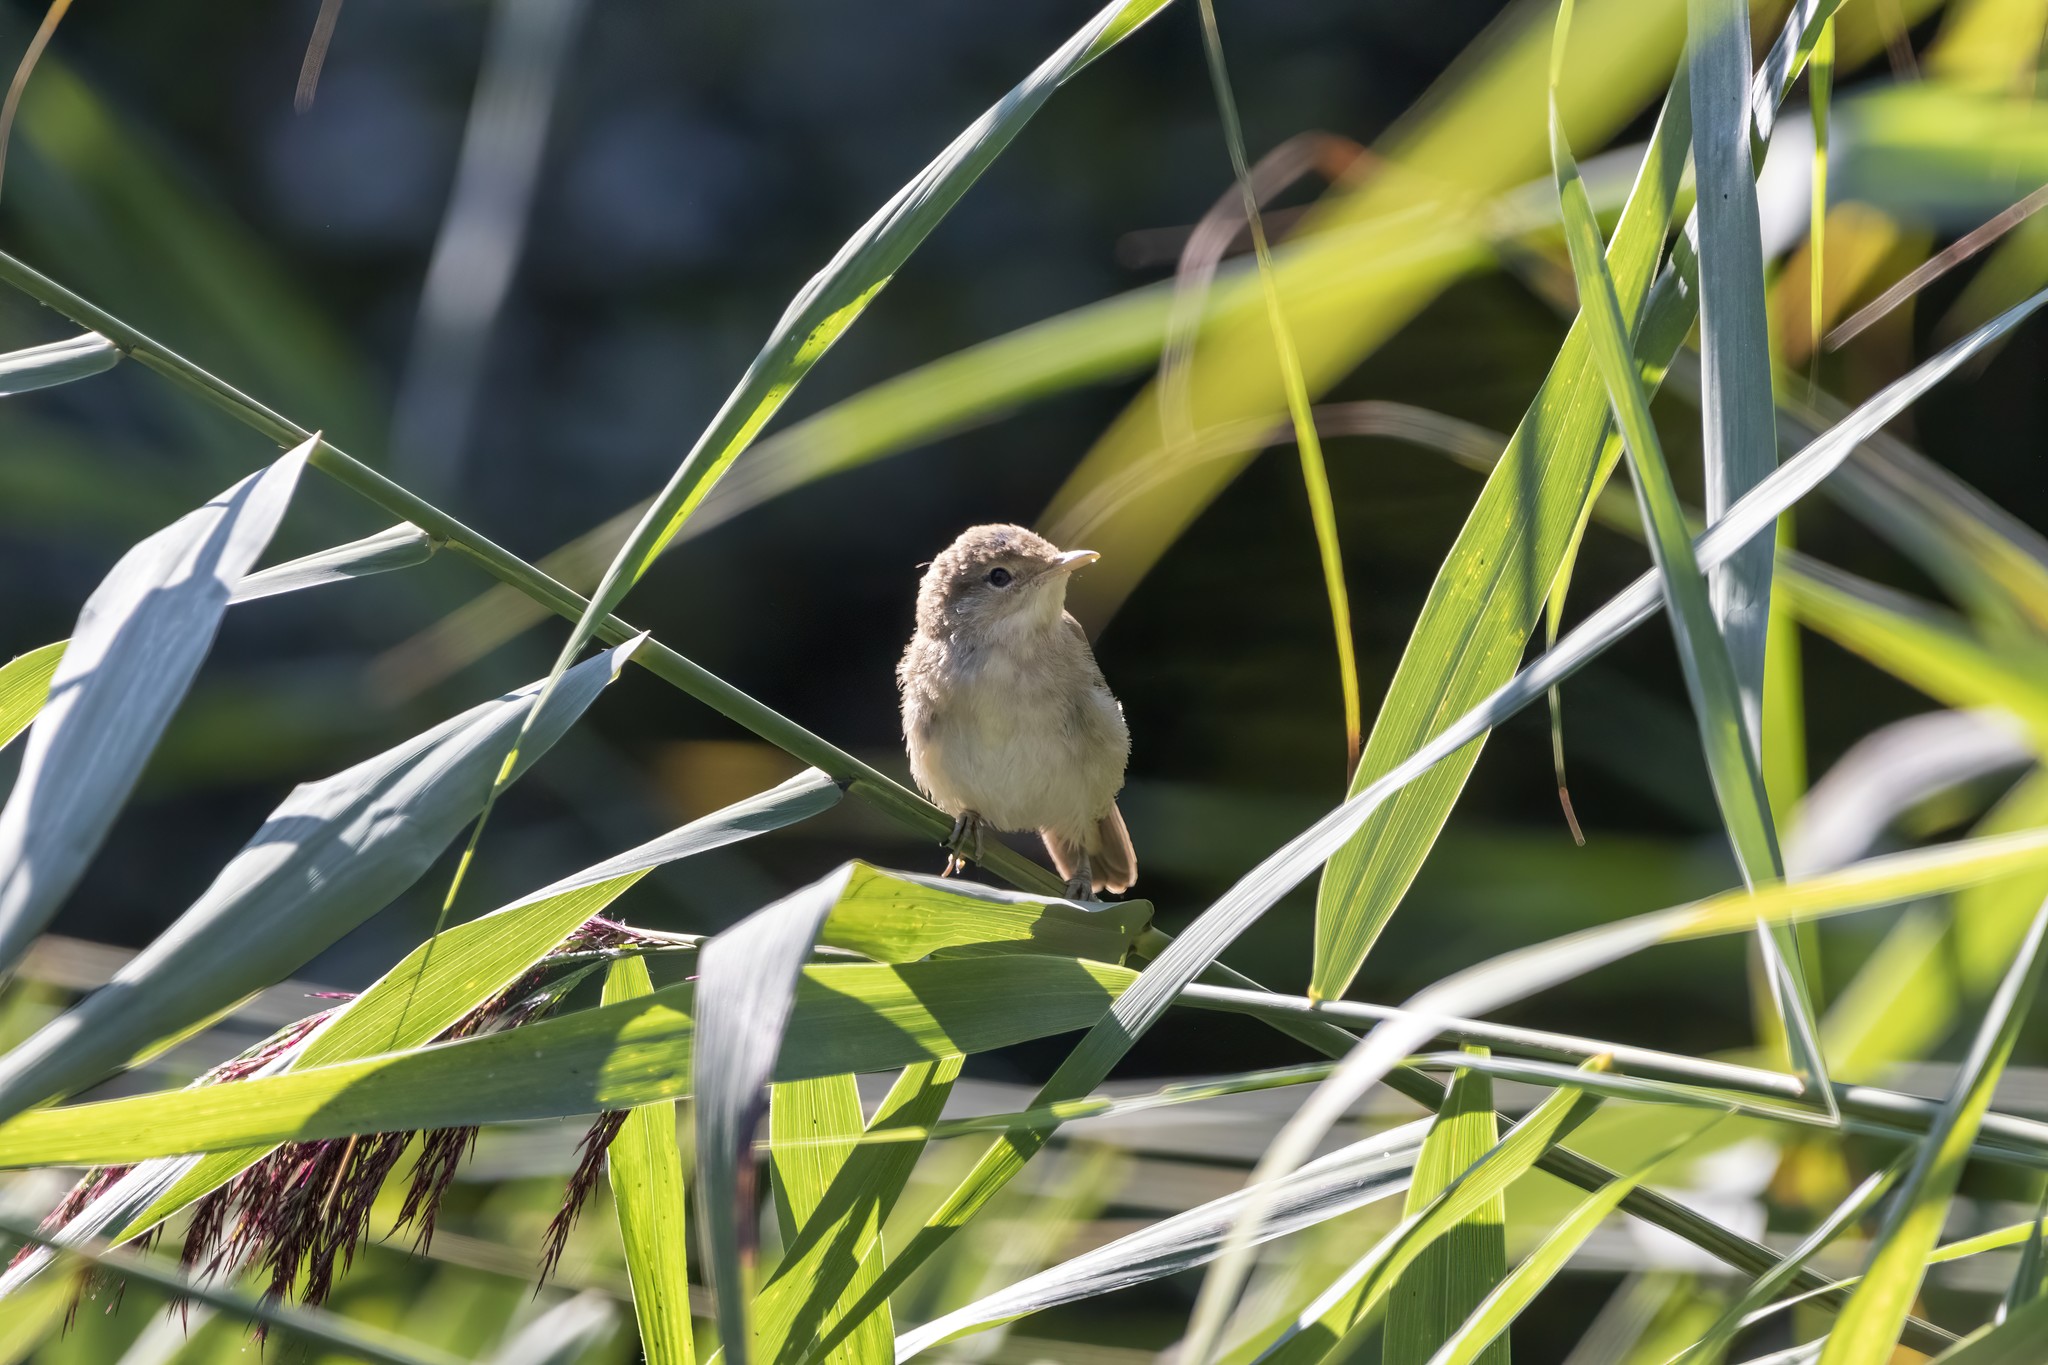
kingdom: Animalia
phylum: Chordata
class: Aves
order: Passeriformes
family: Acrocephalidae
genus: Acrocephalus
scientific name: Acrocephalus scirpaceus
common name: Eurasian reed warbler
